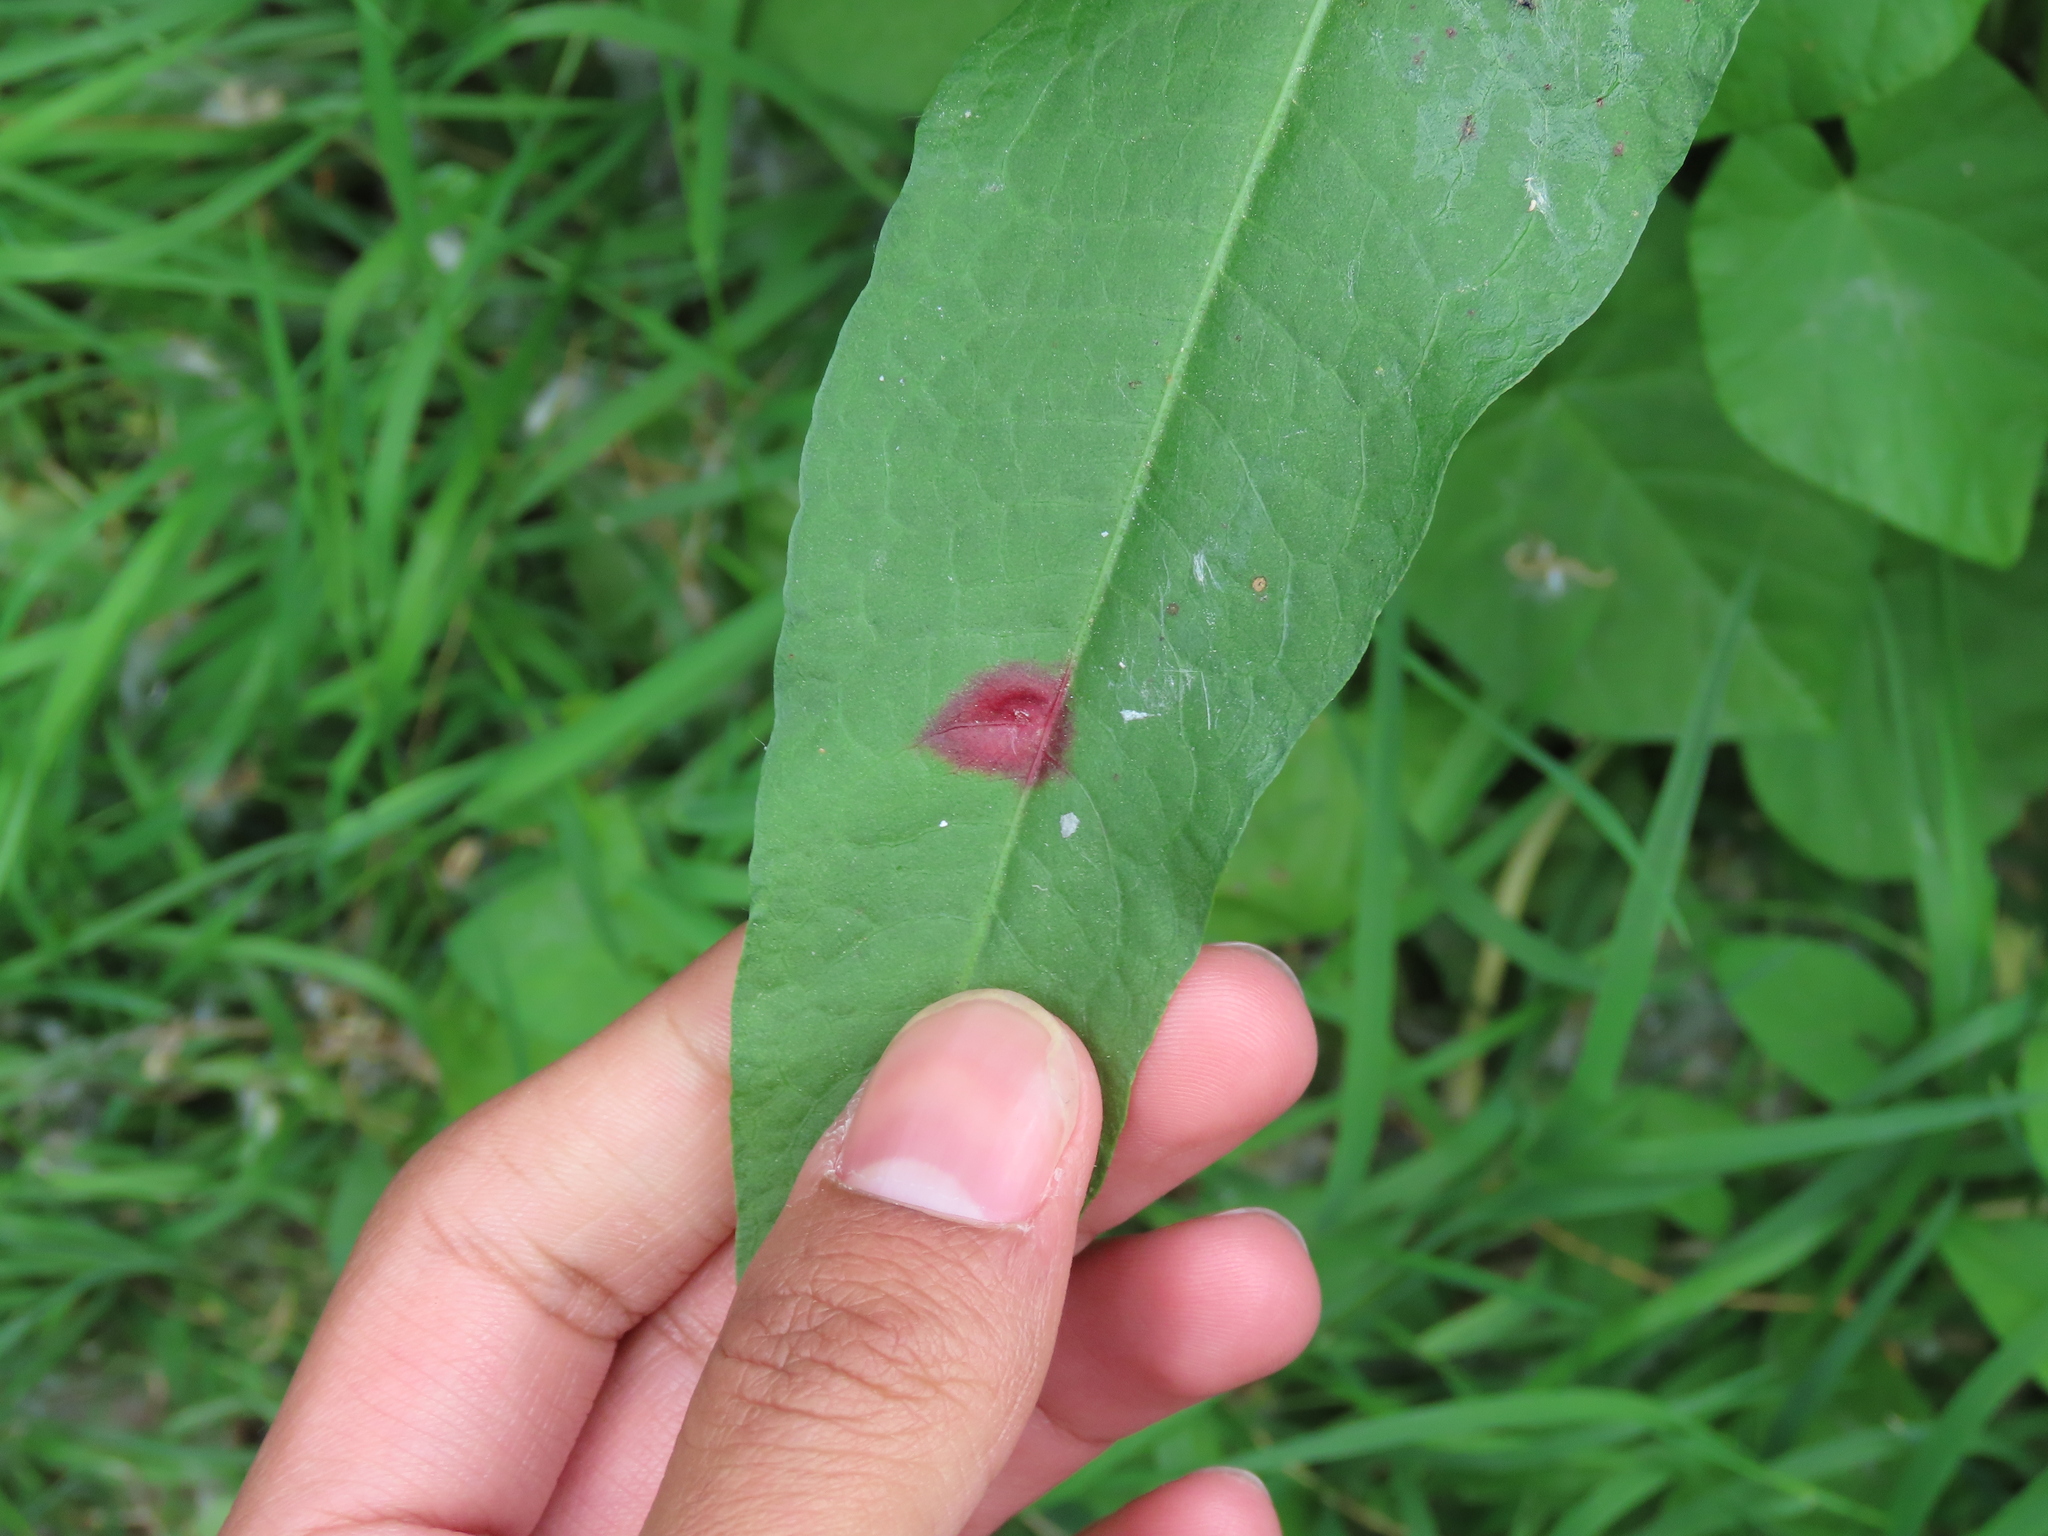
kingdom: Fungi
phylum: Basidiomycota
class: Pucciniomycetes
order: Pucciniales
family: Pucciniaceae
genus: Puccinia
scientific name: Puccinia phragmitis
